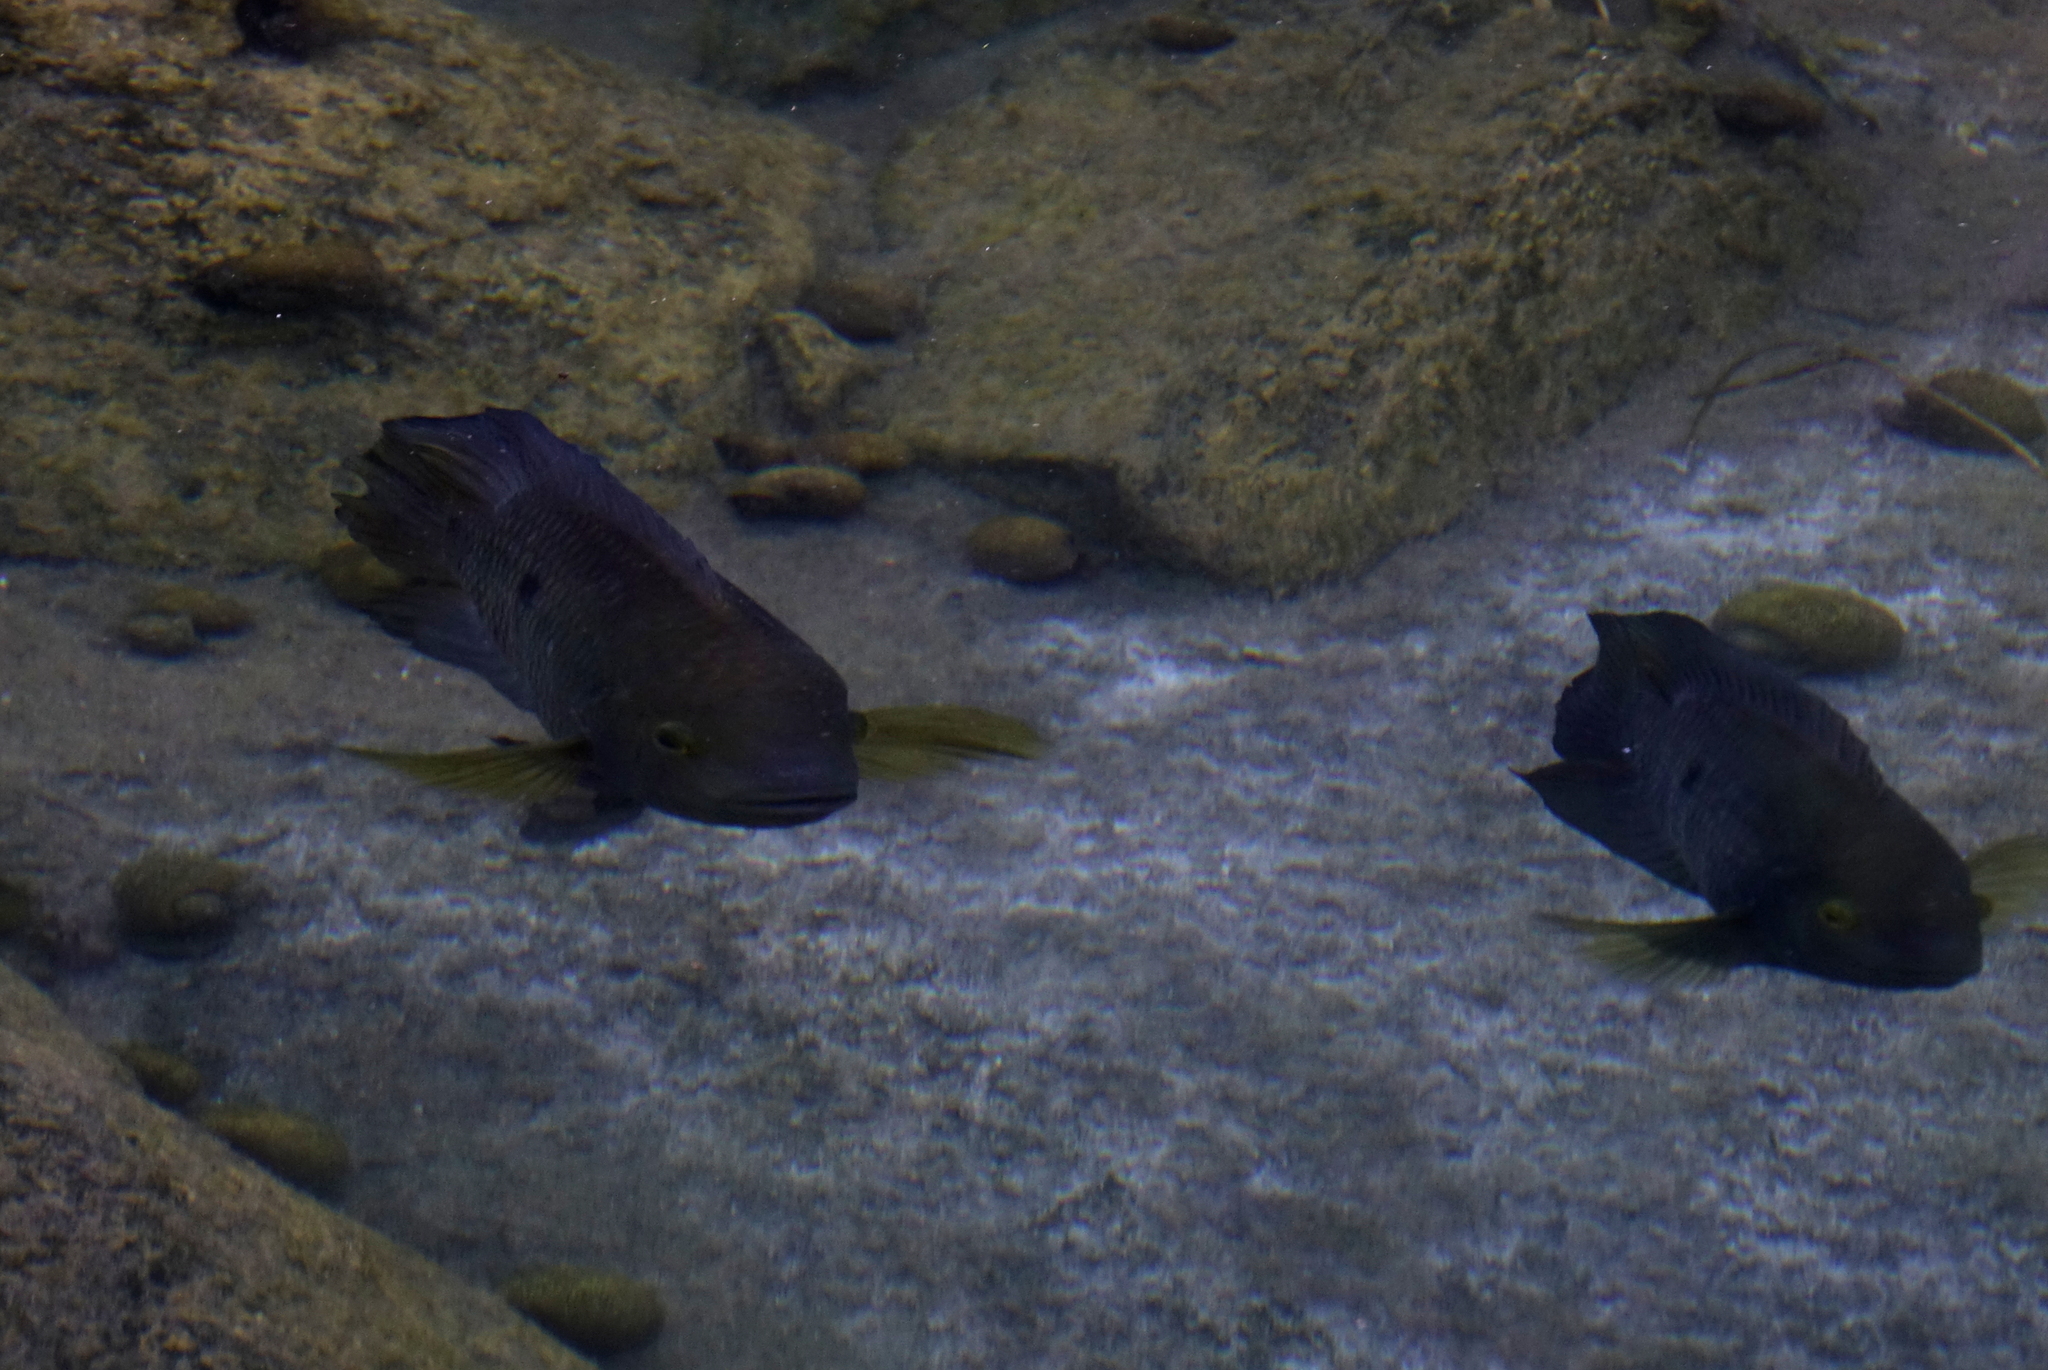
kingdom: Animalia
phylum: Chordata
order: Perciformes
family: Cichlidae
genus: Australoheros
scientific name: Australoheros facetus
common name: Chameleon cichlid
